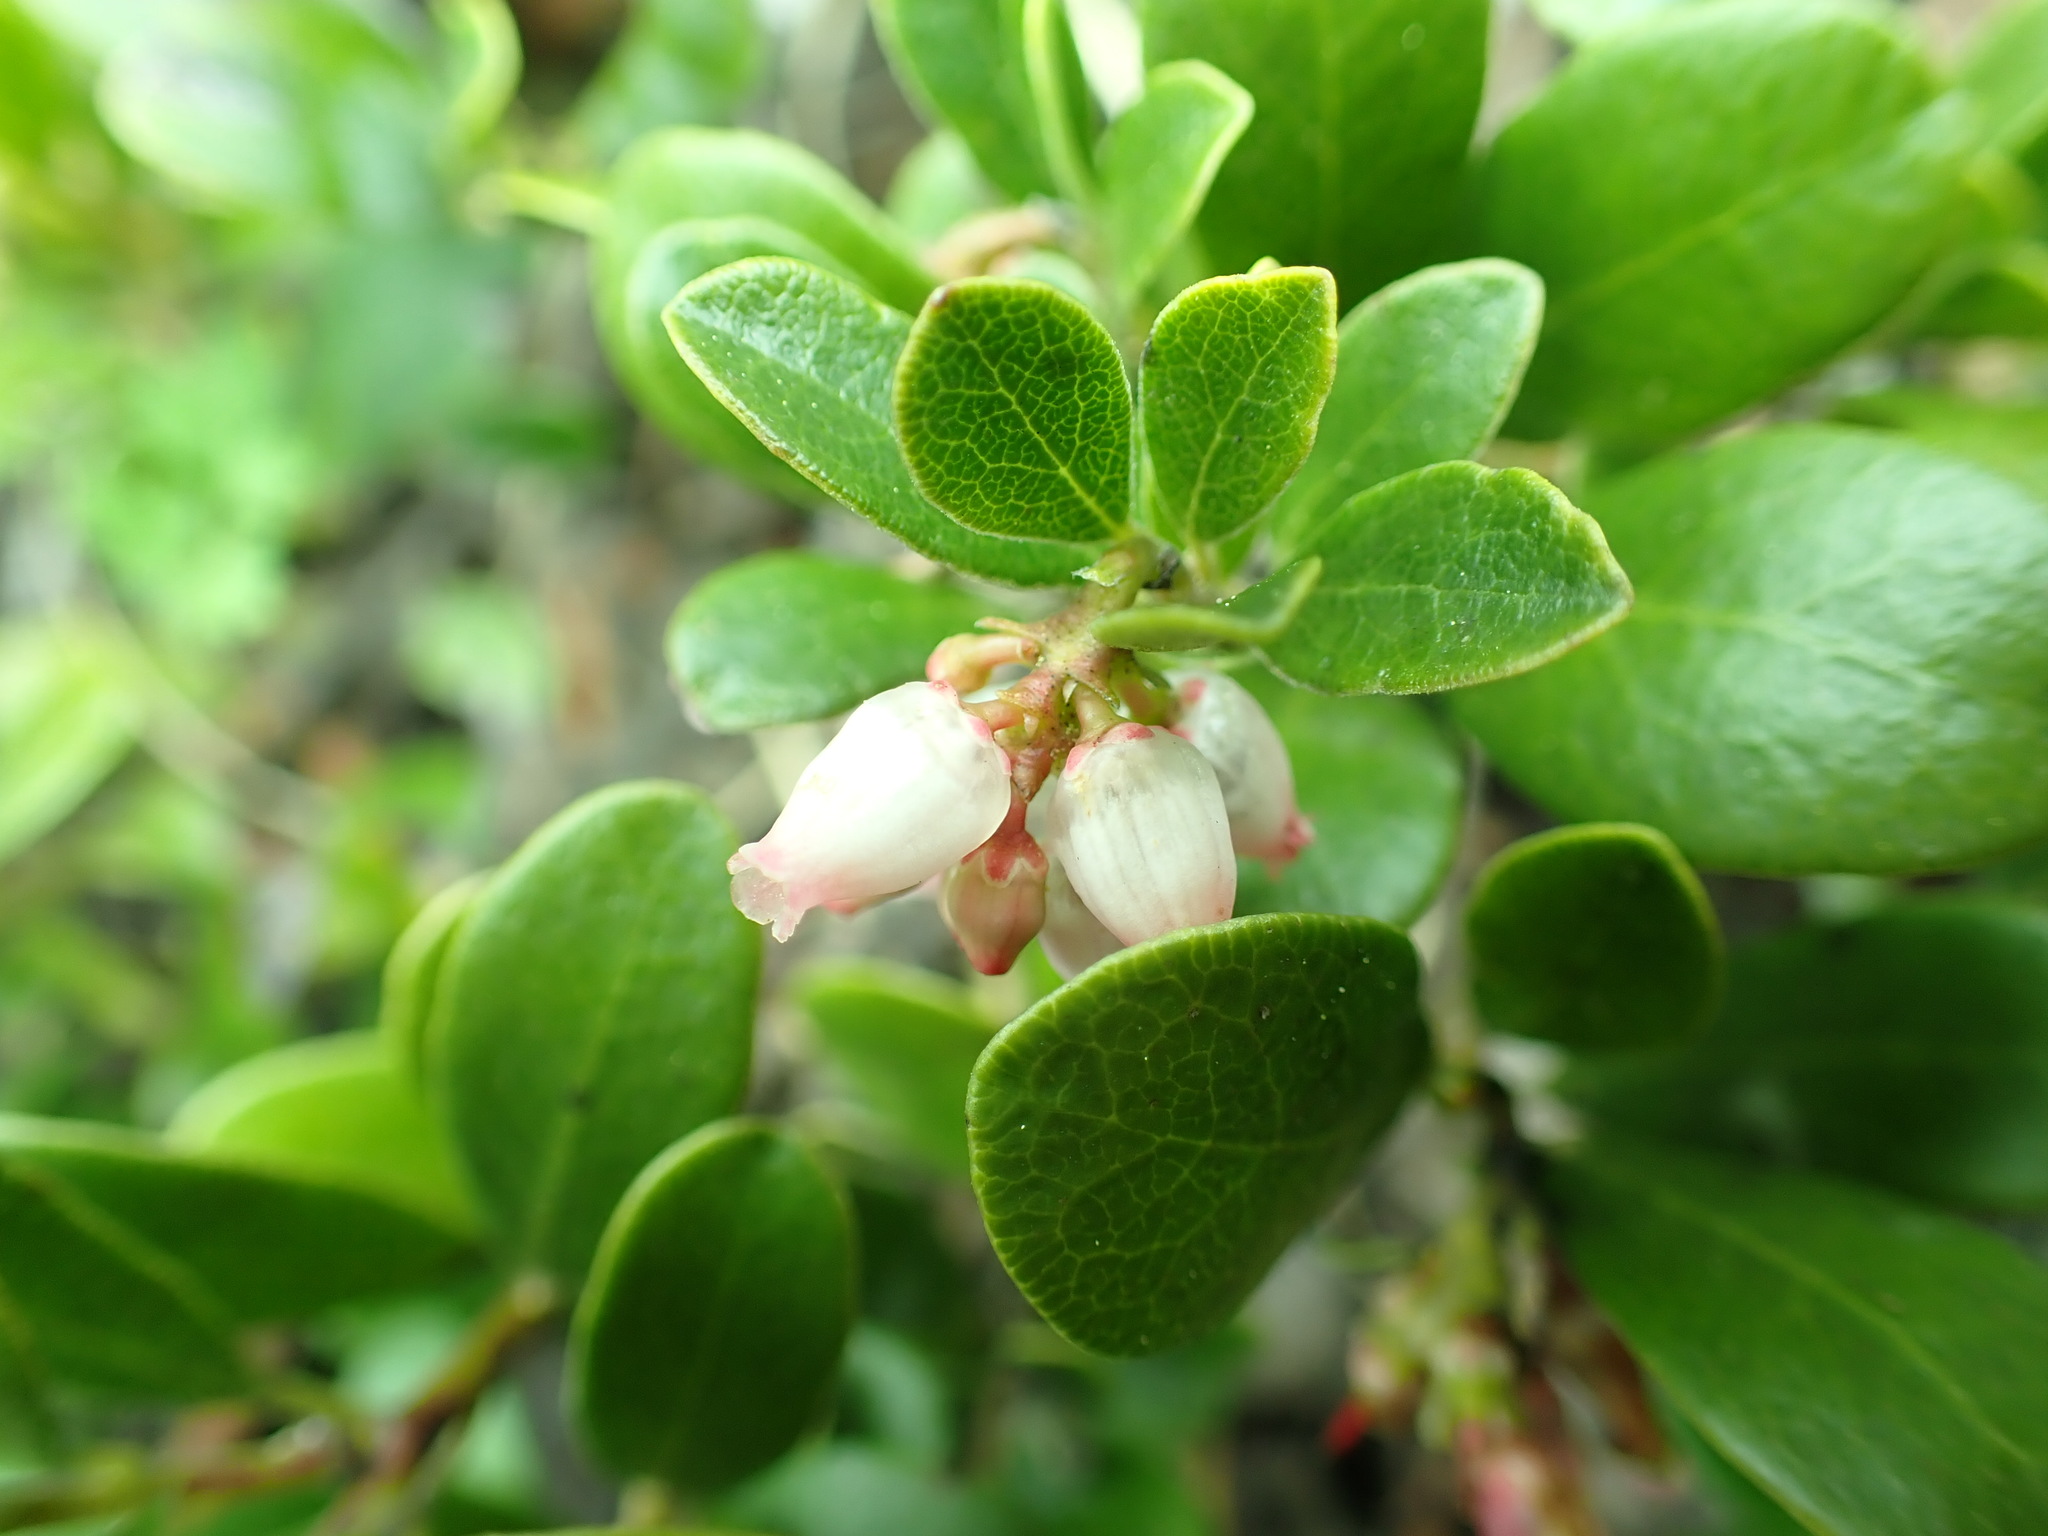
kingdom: Plantae
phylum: Tracheophyta
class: Magnoliopsida
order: Ericales
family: Ericaceae
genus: Arctostaphylos
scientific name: Arctostaphylos uva-ursi
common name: Bearberry
